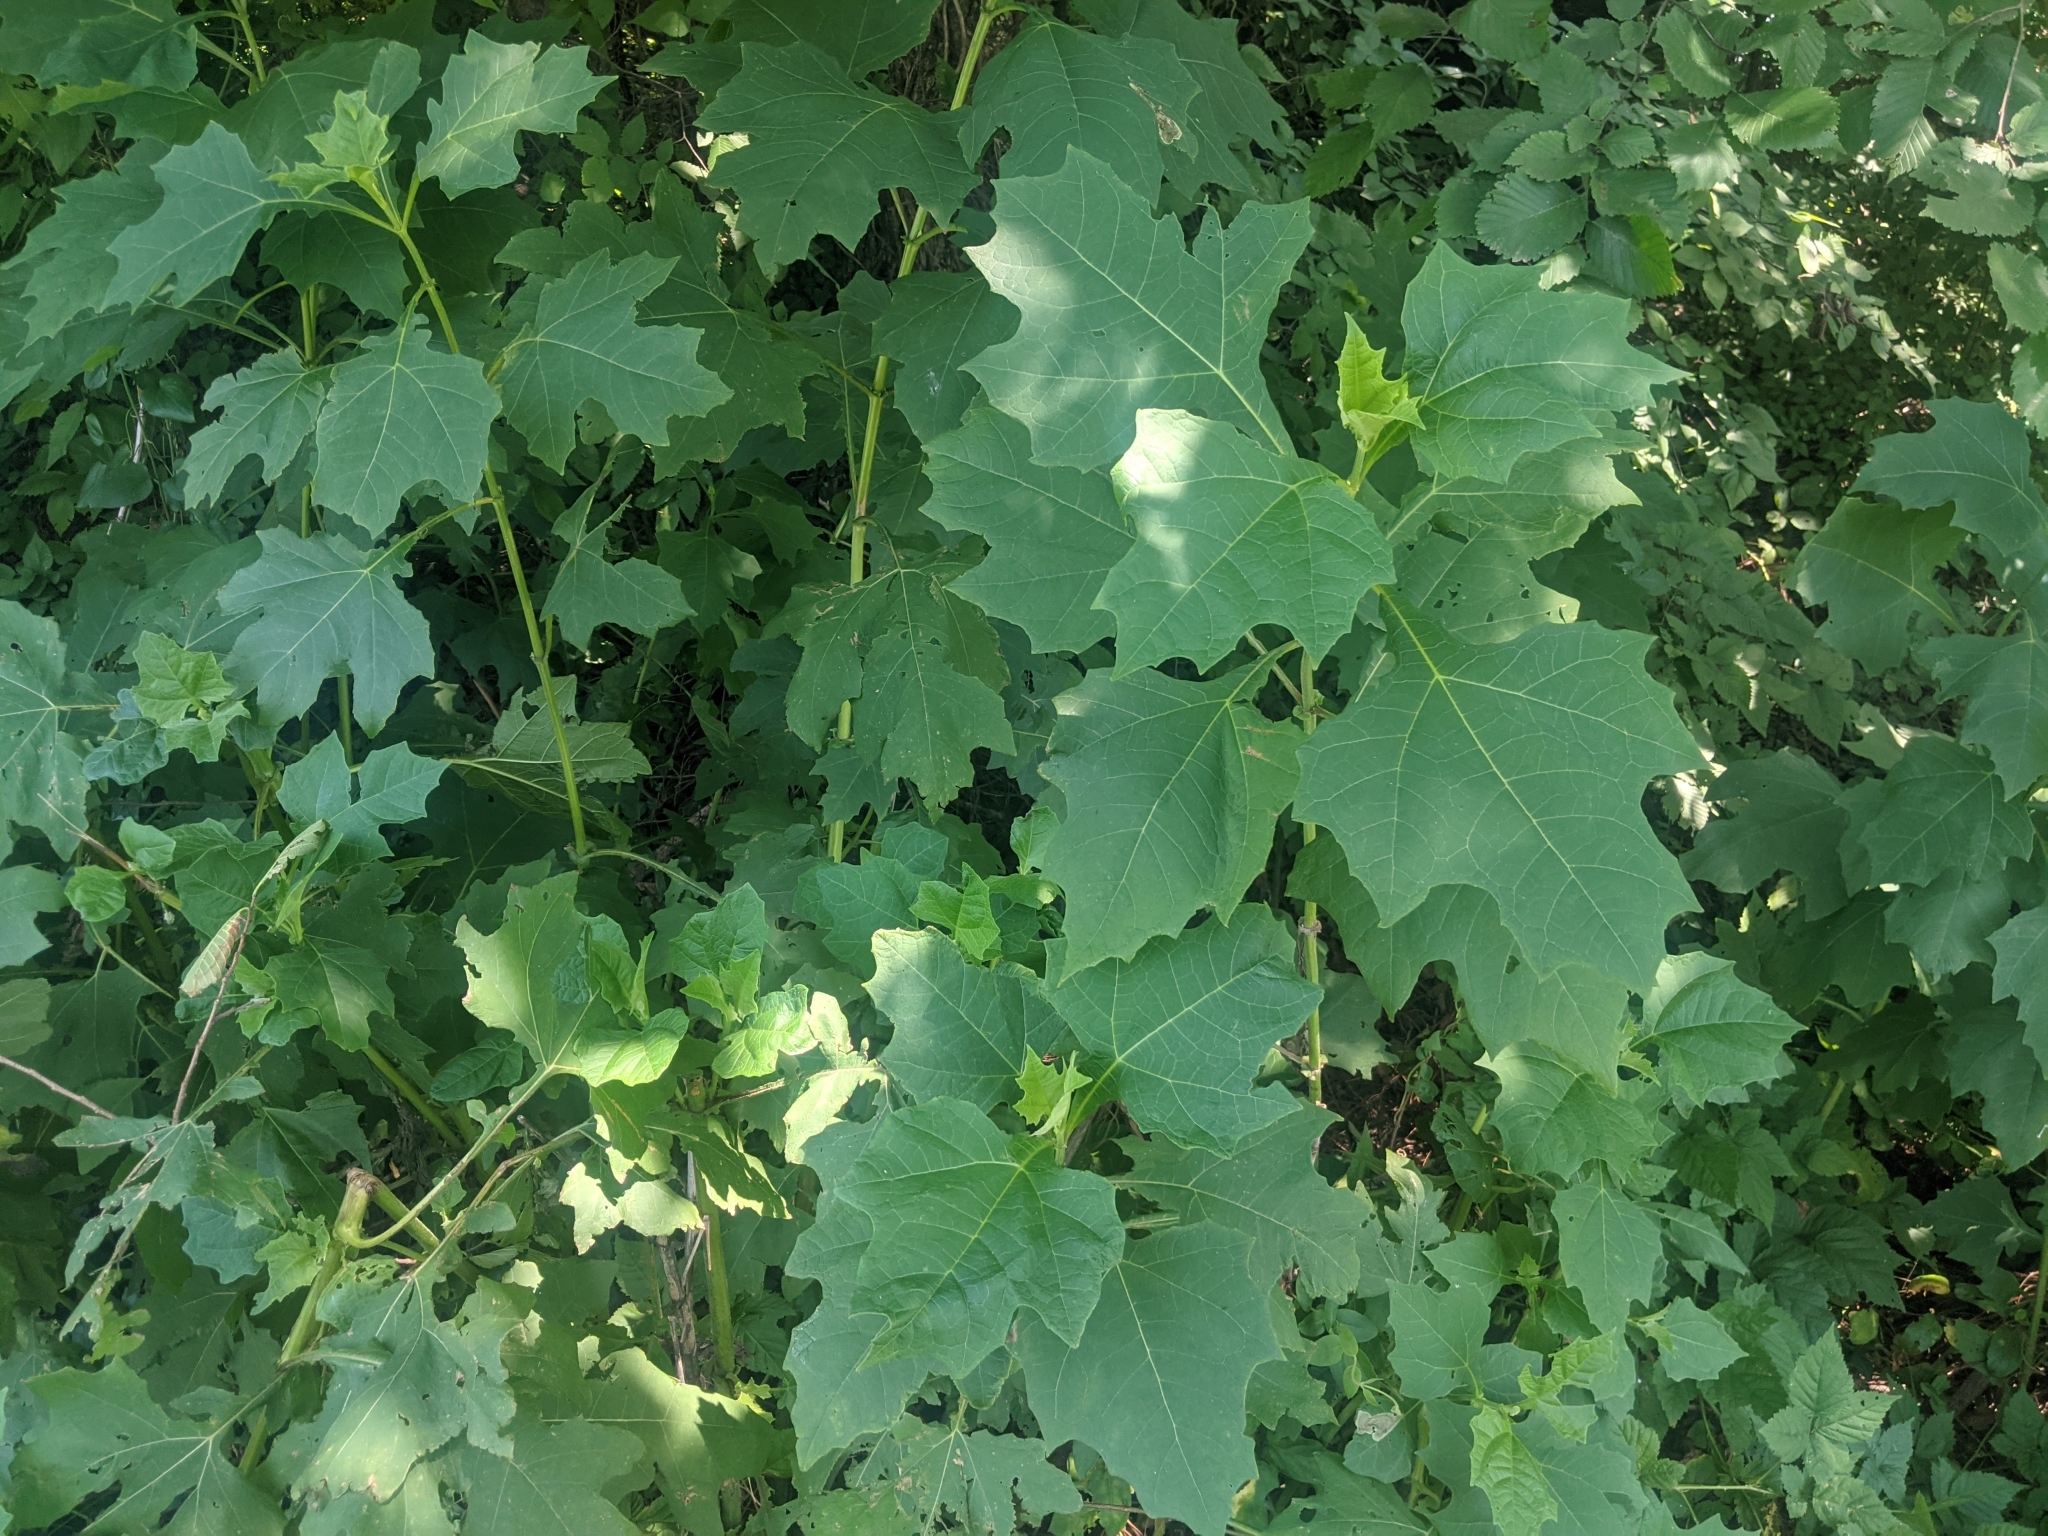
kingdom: Plantae
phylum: Tracheophyta
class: Magnoliopsida
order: Asterales
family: Asteraceae
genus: Smallanthus
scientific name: Smallanthus uvedalia
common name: Bear's-foot
